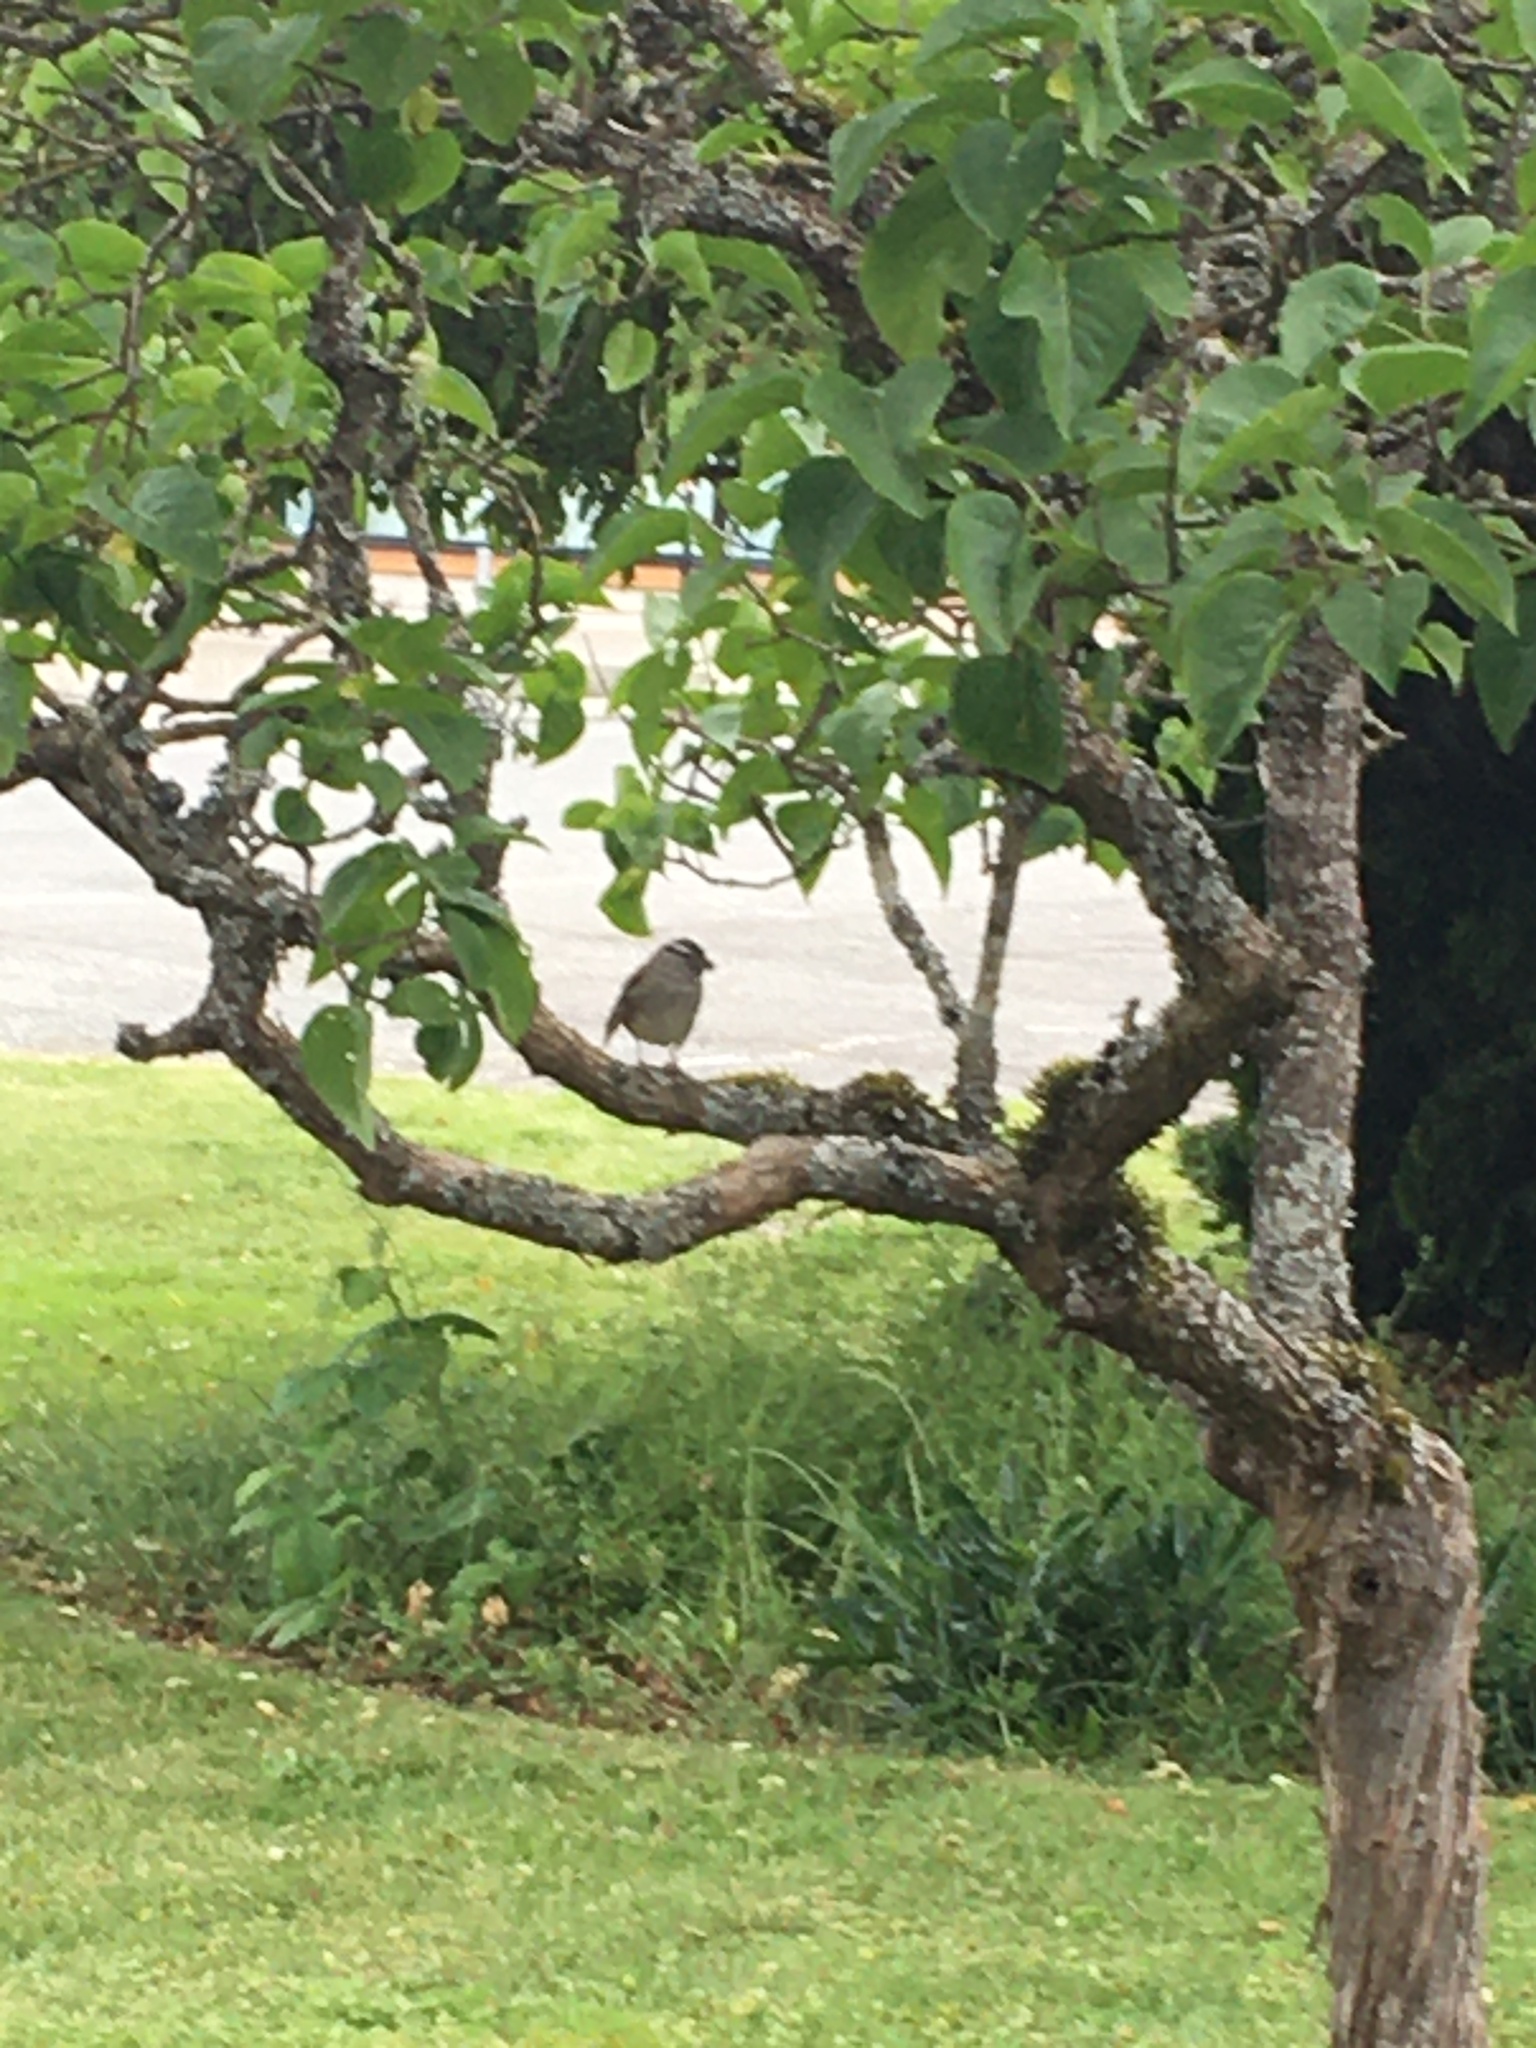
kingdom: Animalia
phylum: Chordata
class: Aves
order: Passeriformes
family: Passerellidae
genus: Zonotrichia
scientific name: Zonotrichia leucophrys
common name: White-crowned sparrow
